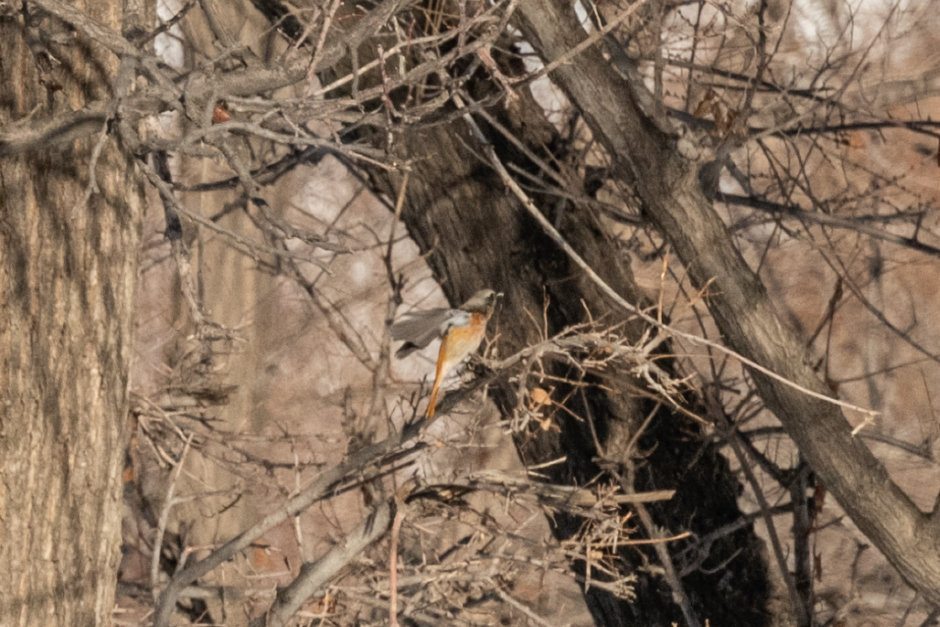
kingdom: Animalia
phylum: Chordata
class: Aves
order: Passeriformes
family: Muscicapidae
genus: Phoenicurus
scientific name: Phoenicurus erythronotus
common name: Eversmann's redstart
